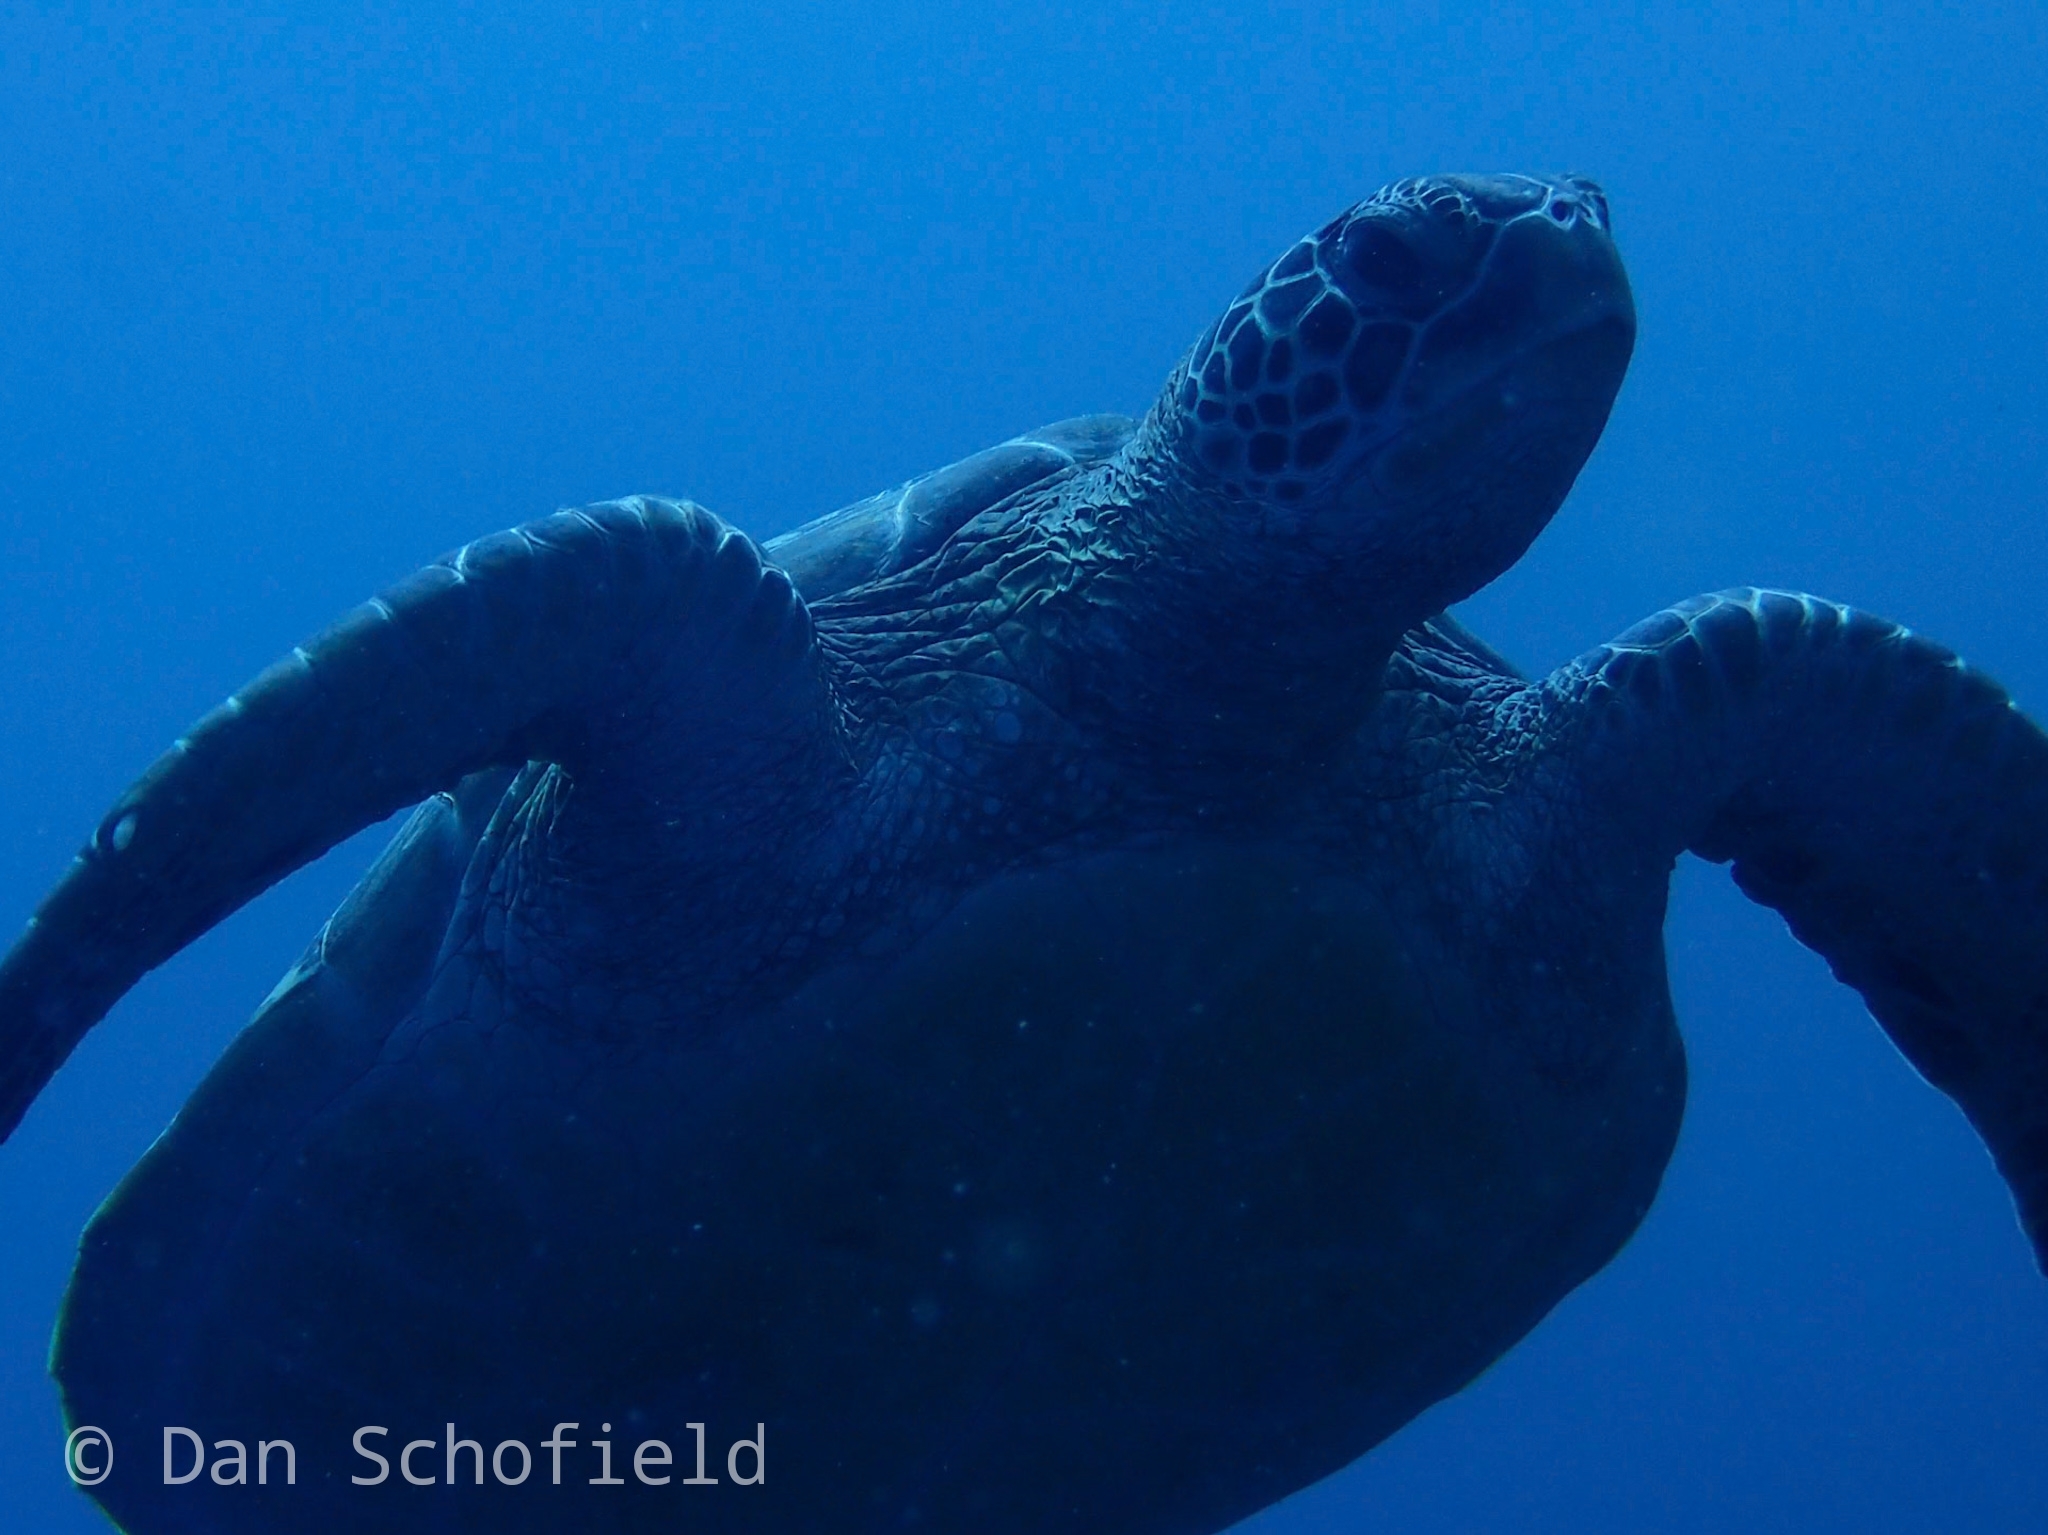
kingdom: Animalia
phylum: Chordata
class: Testudines
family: Cheloniidae
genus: Chelonia
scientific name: Chelonia mydas
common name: Green turtle
